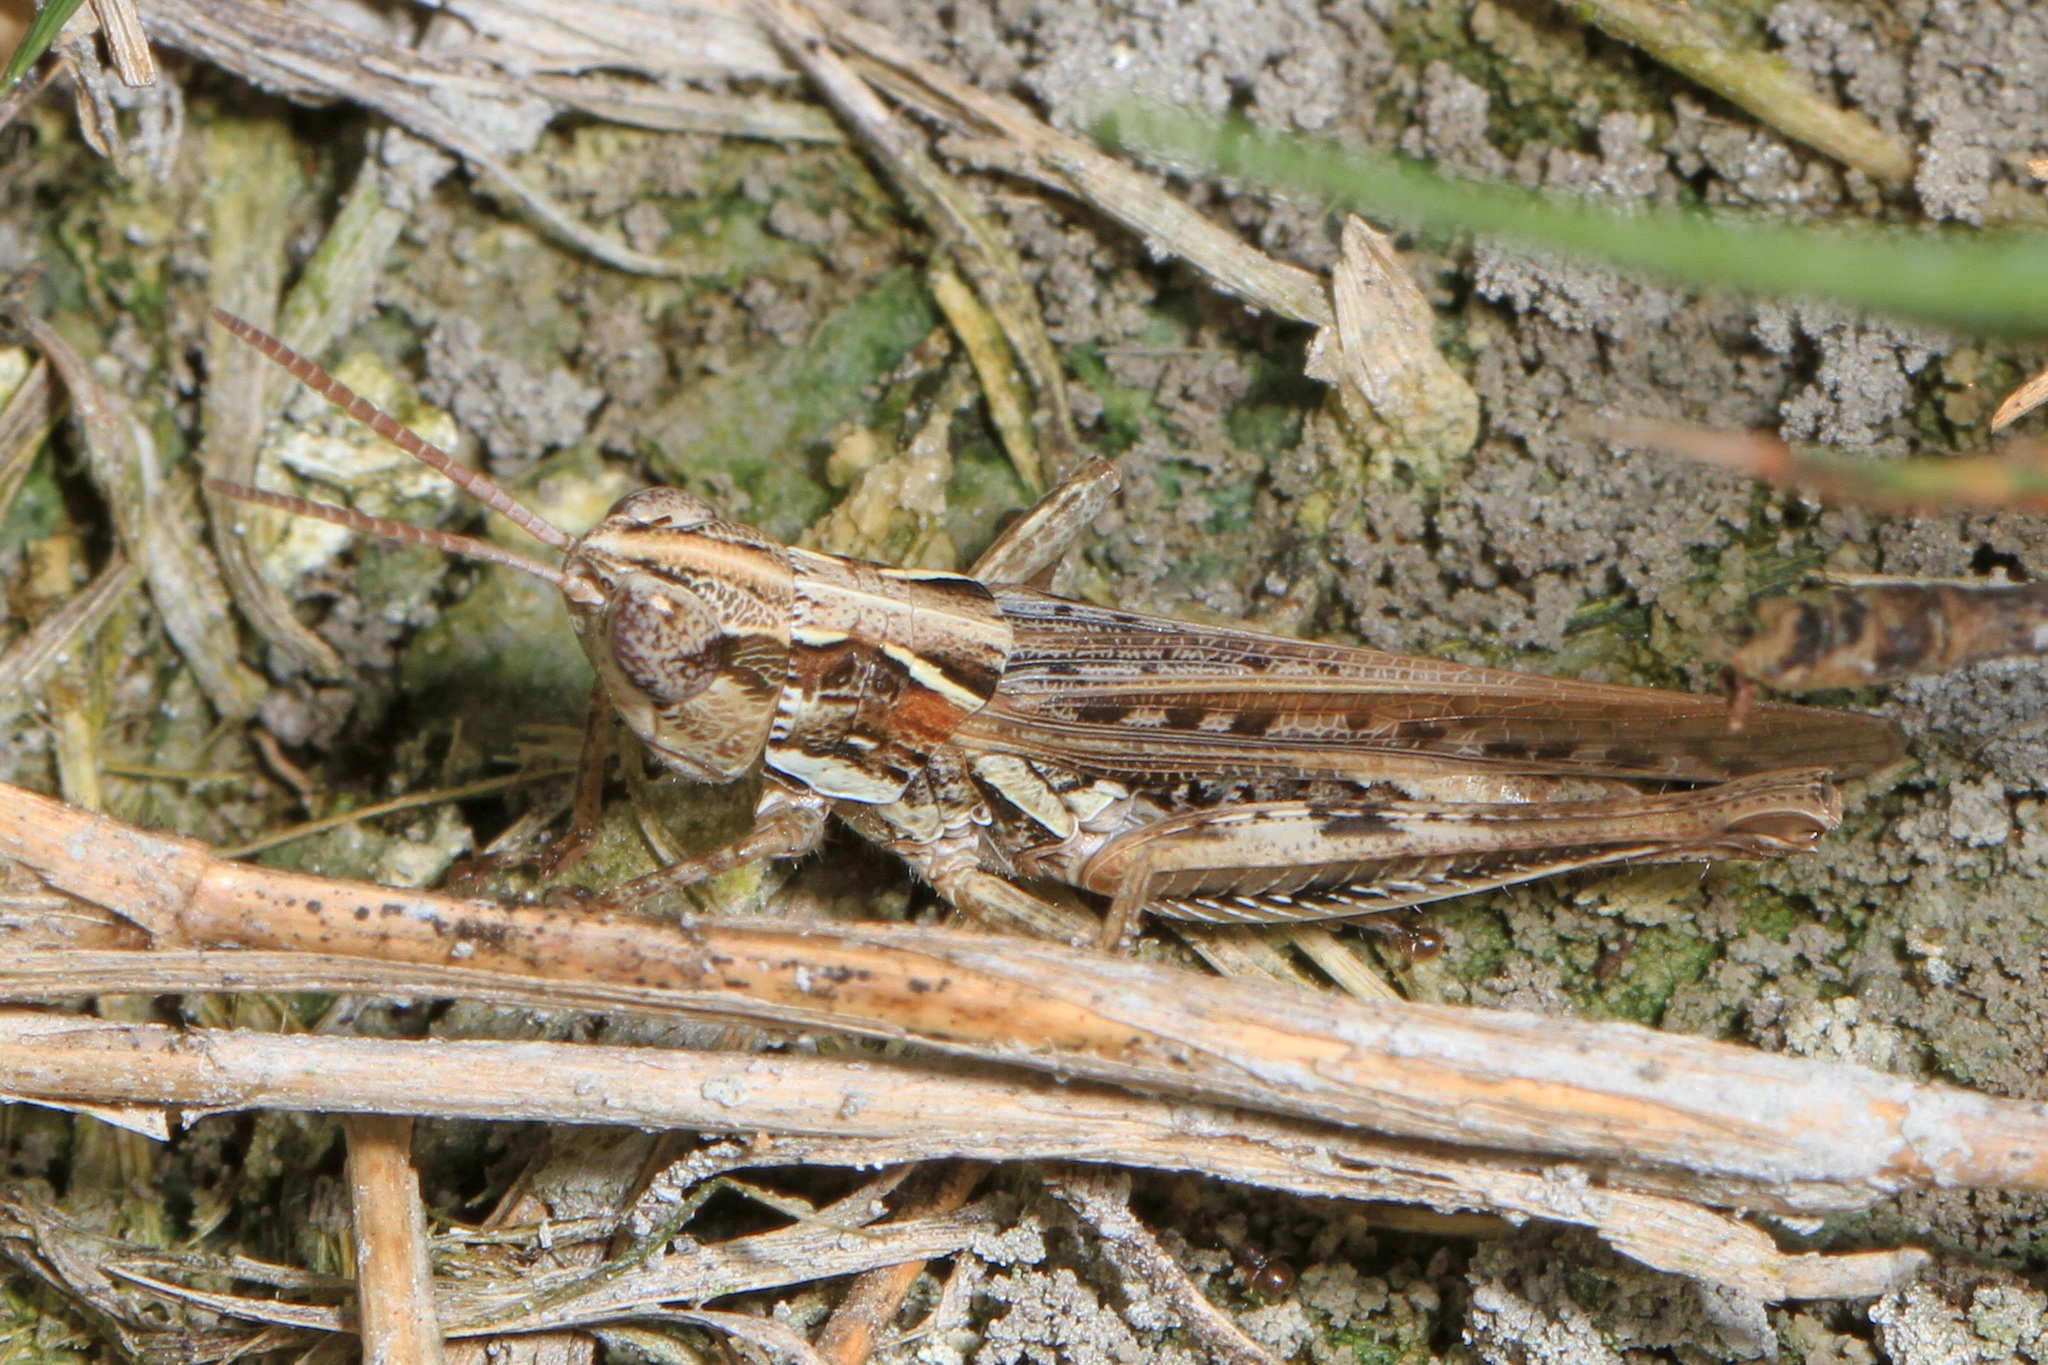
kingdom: Animalia
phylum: Arthropoda
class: Insecta
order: Orthoptera
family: Acrididae
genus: Orphulella
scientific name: Orphulella pelidna
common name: Spotted-wing grasshopper
